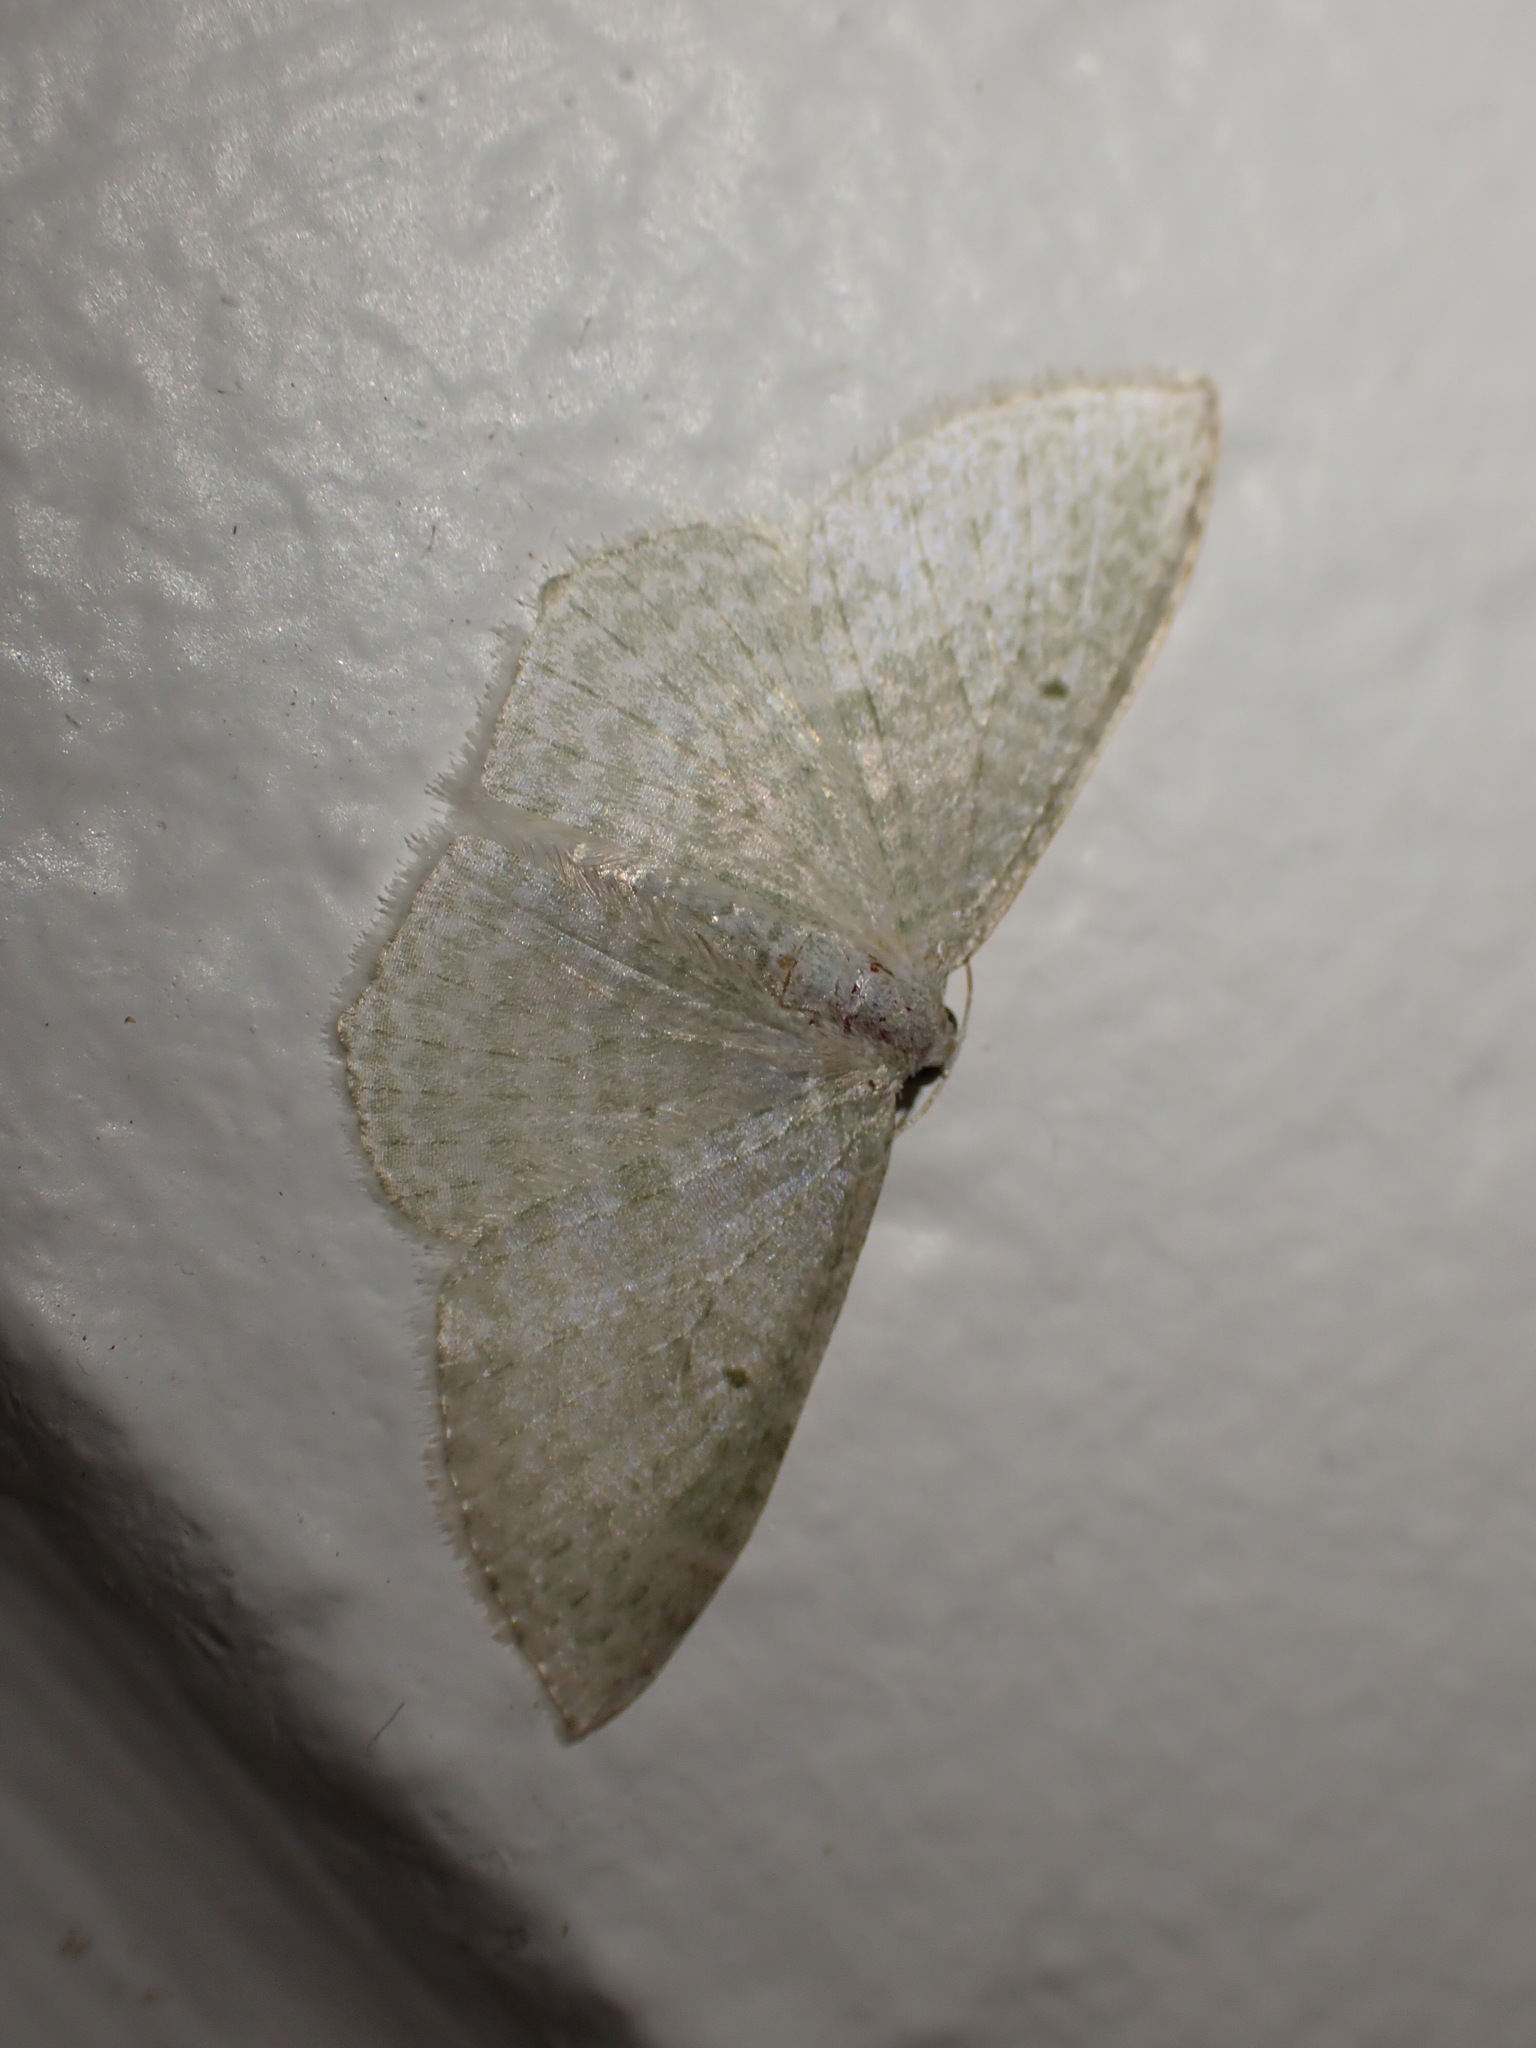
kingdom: Animalia
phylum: Arthropoda
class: Insecta
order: Lepidoptera
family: Geometridae
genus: Poecilasthena
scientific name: Poecilasthena pulchraria
